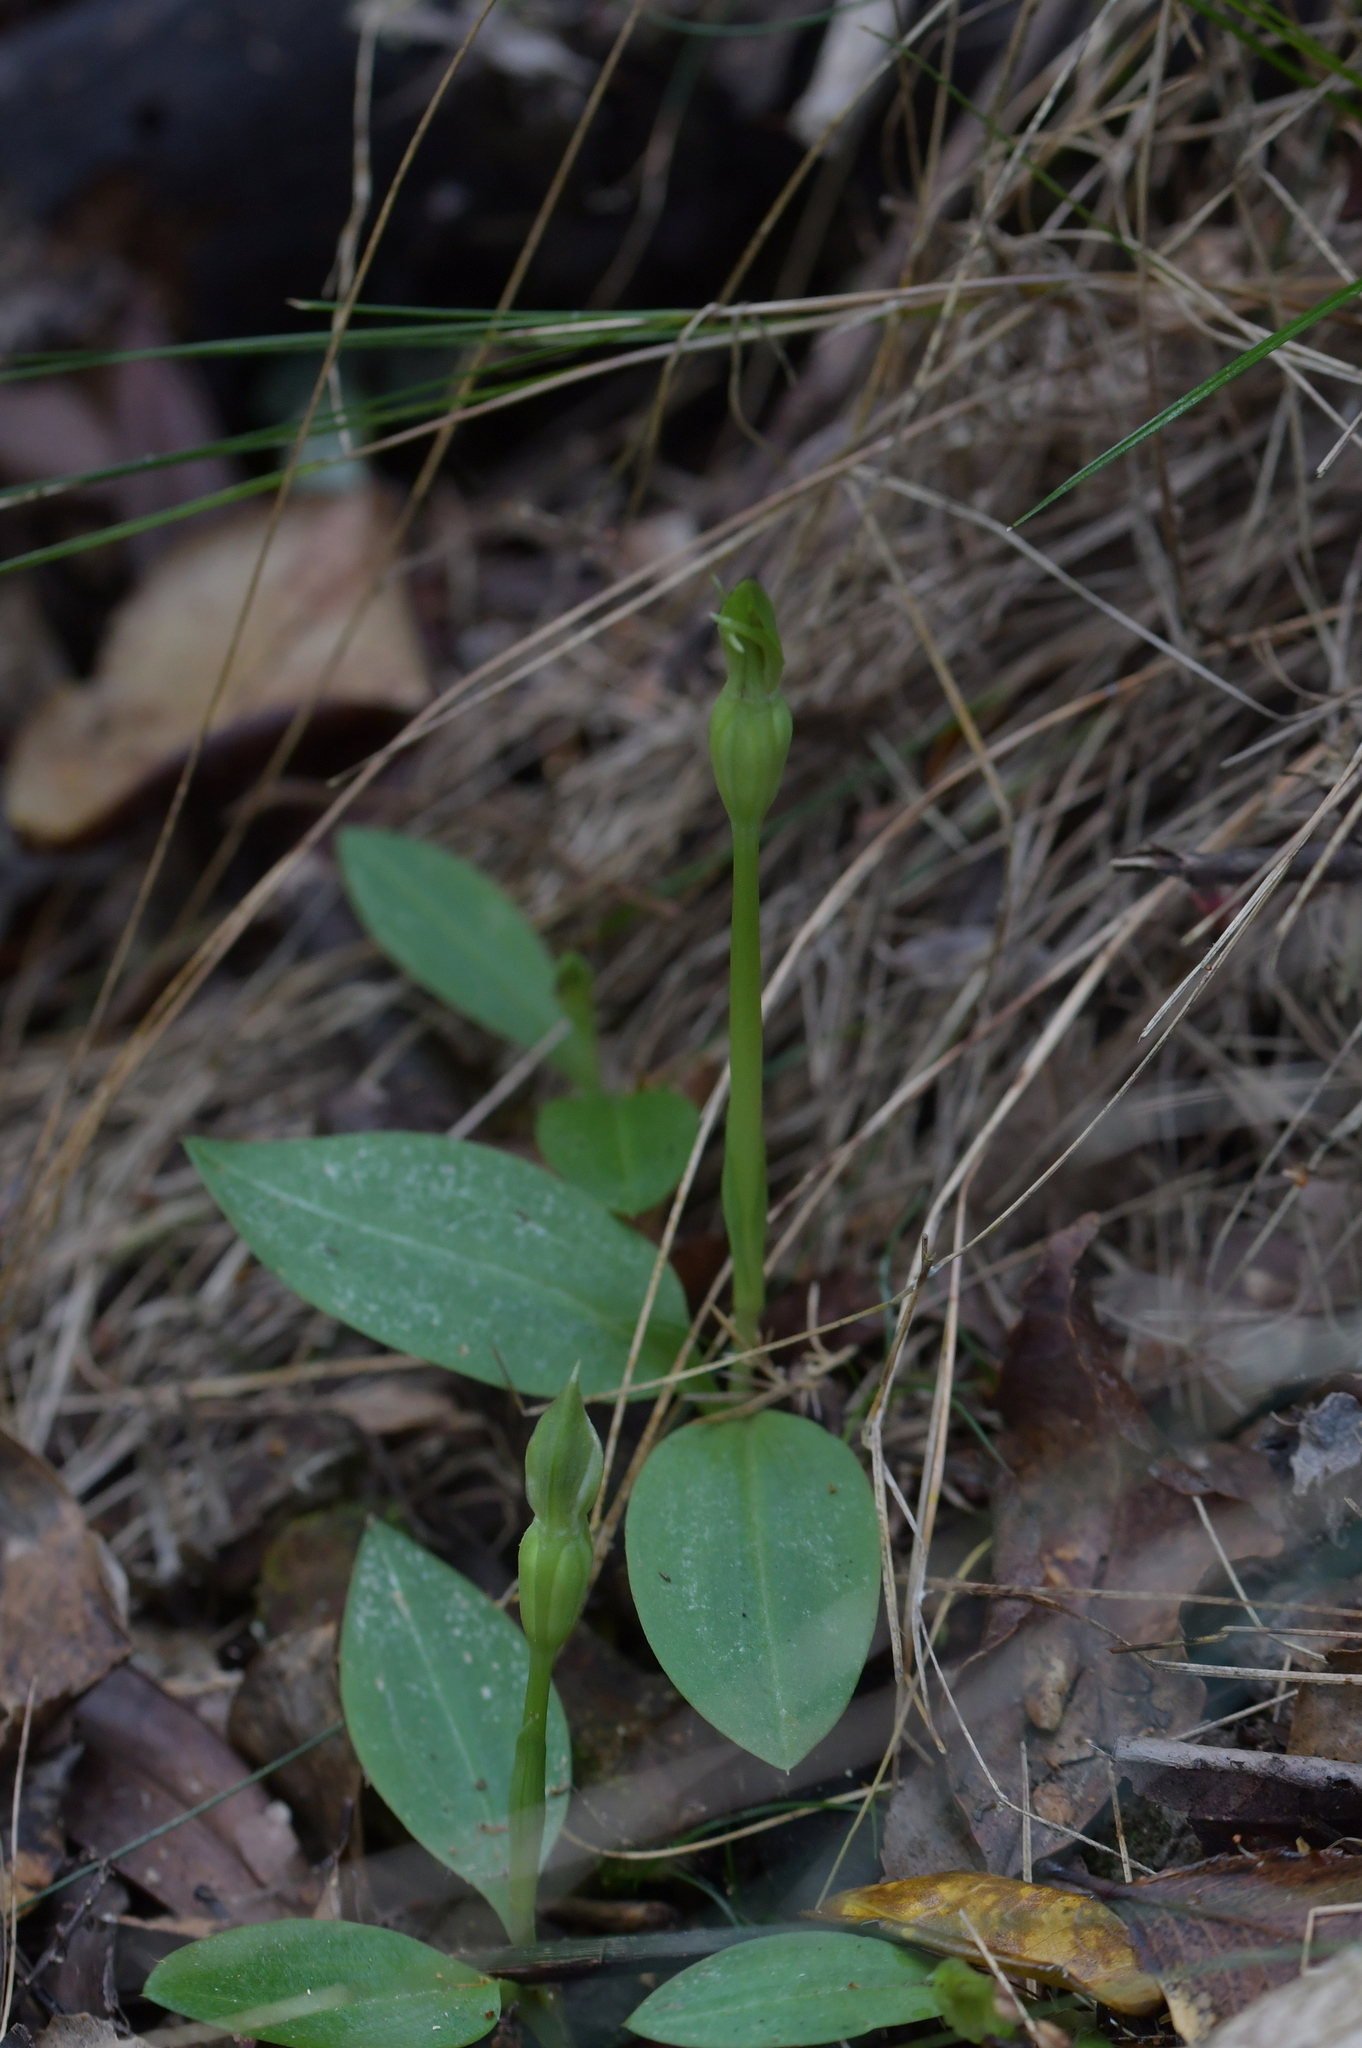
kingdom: Plantae
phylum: Tracheophyta
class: Liliopsida
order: Asparagales
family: Orchidaceae
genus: Chiloglottis
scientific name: Chiloglottis cornuta
